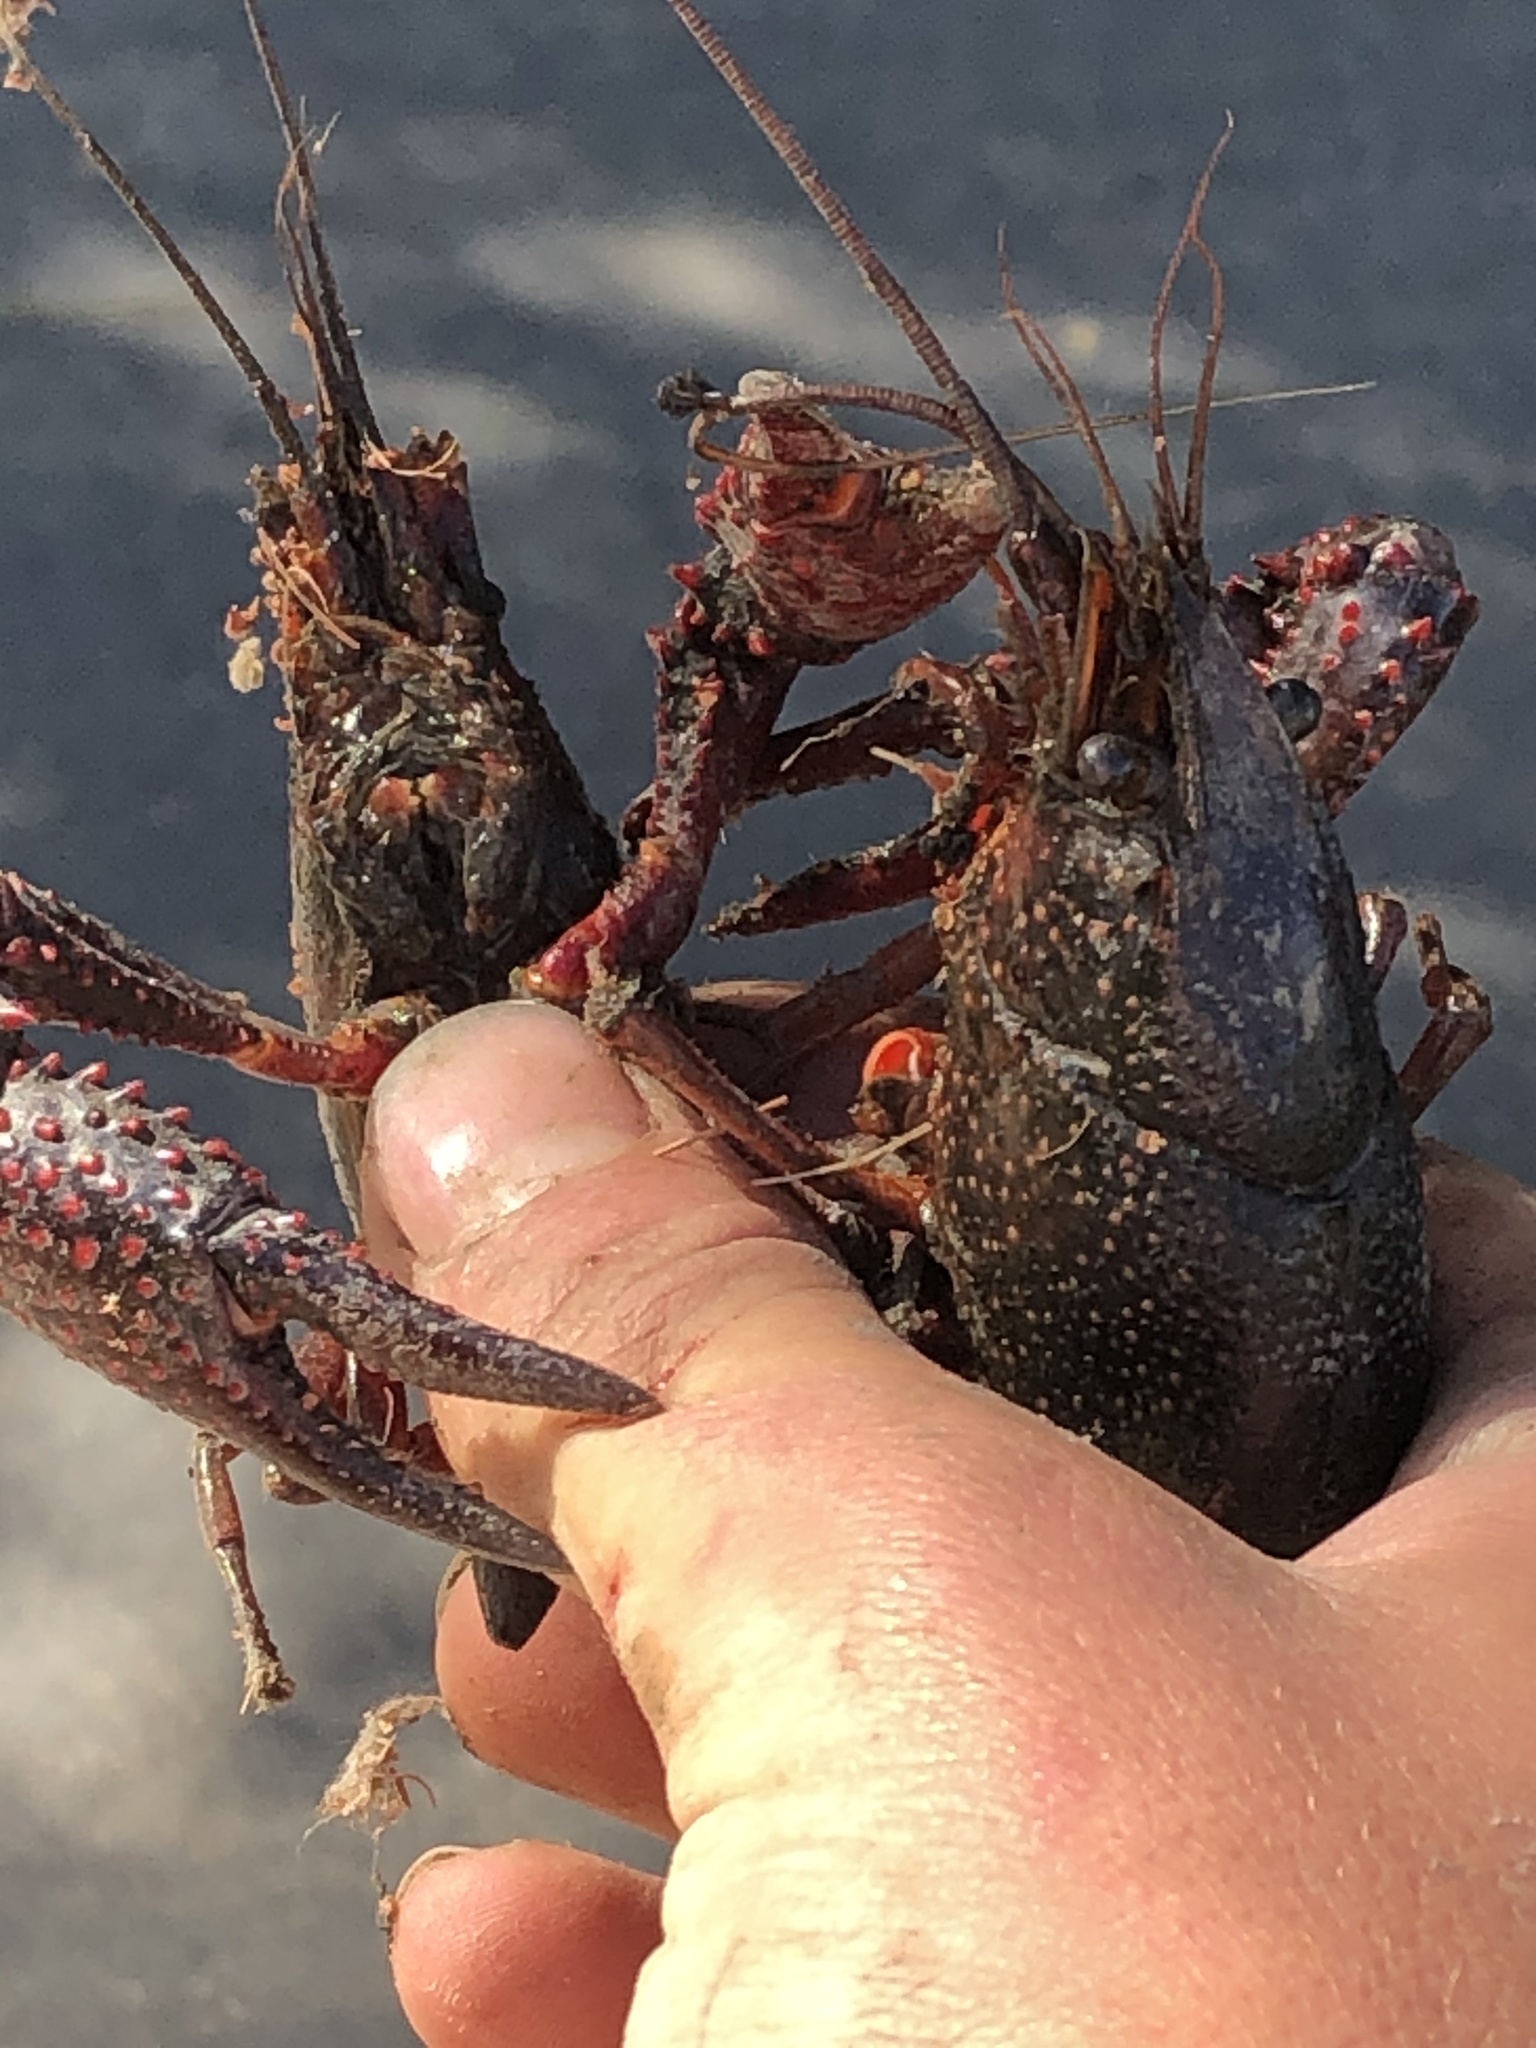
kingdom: Animalia
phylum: Arthropoda
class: Malacostraca
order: Decapoda
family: Cambaridae
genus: Procambarus
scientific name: Procambarus clarkii
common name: Red swamp crayfish
